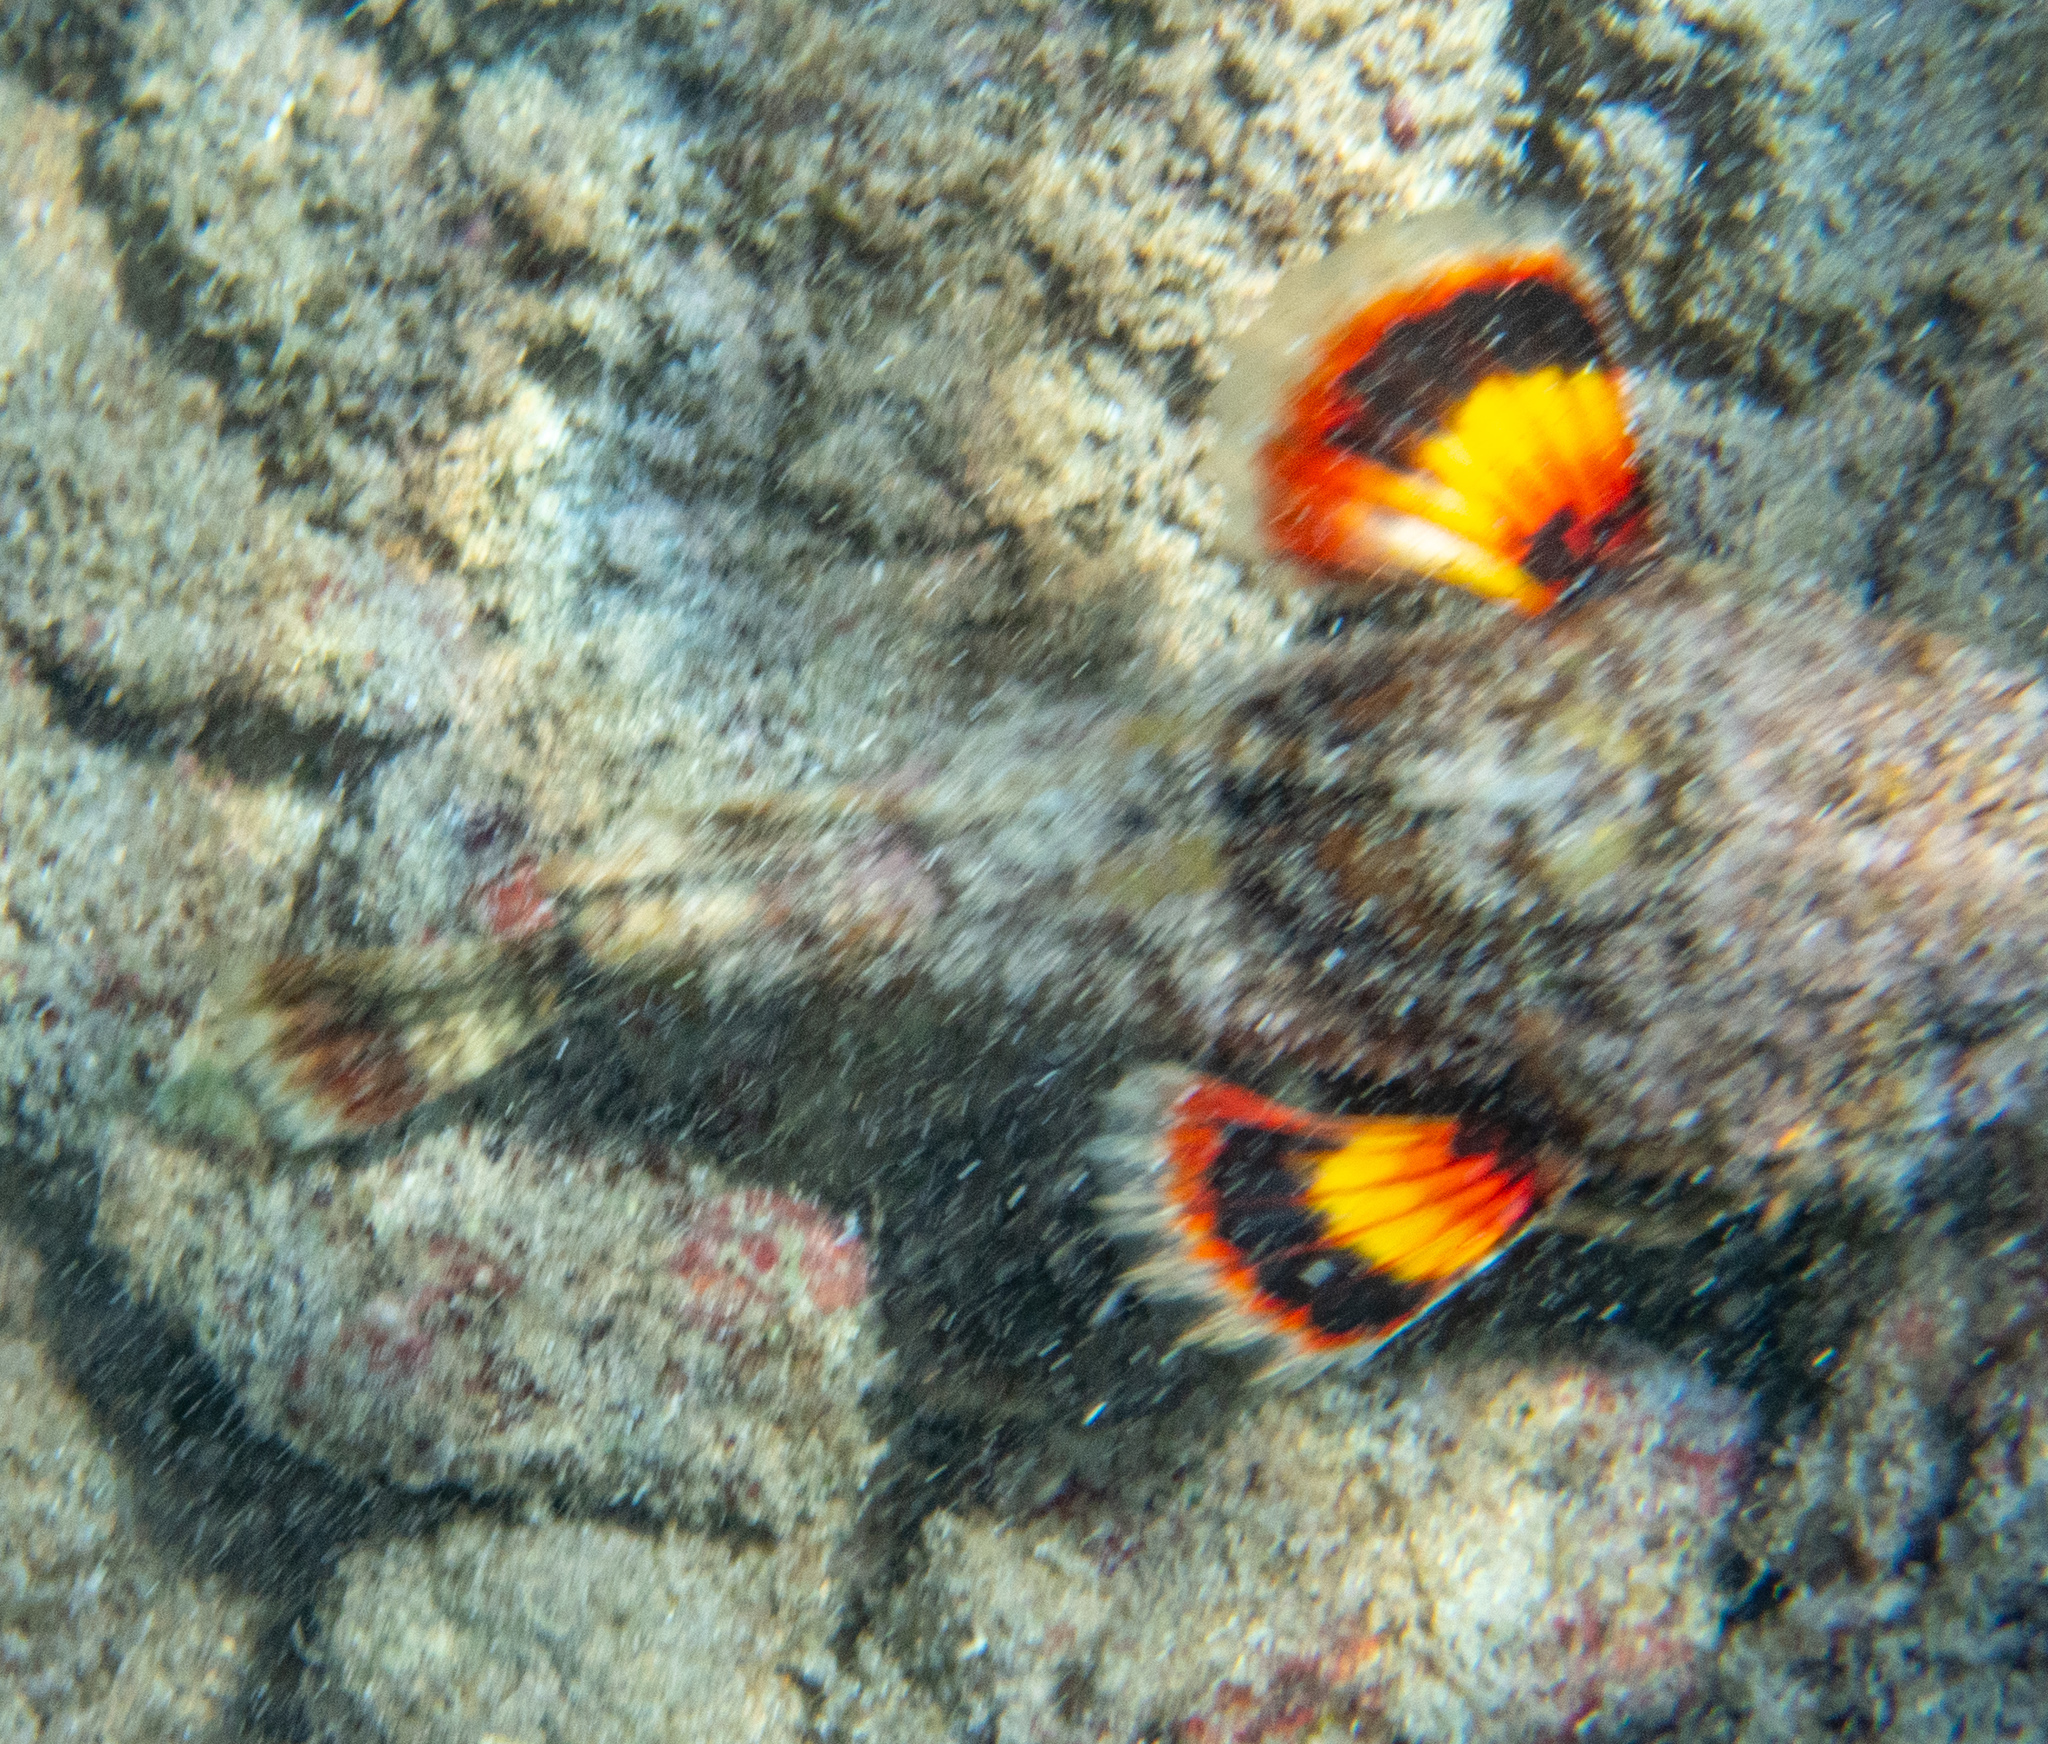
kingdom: Animalia
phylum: Chordata
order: Scorpaeniformes
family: Scorpaenidae
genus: Scorpaenopsis
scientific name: Scorpaenopsis diabolus
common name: False stonefish
